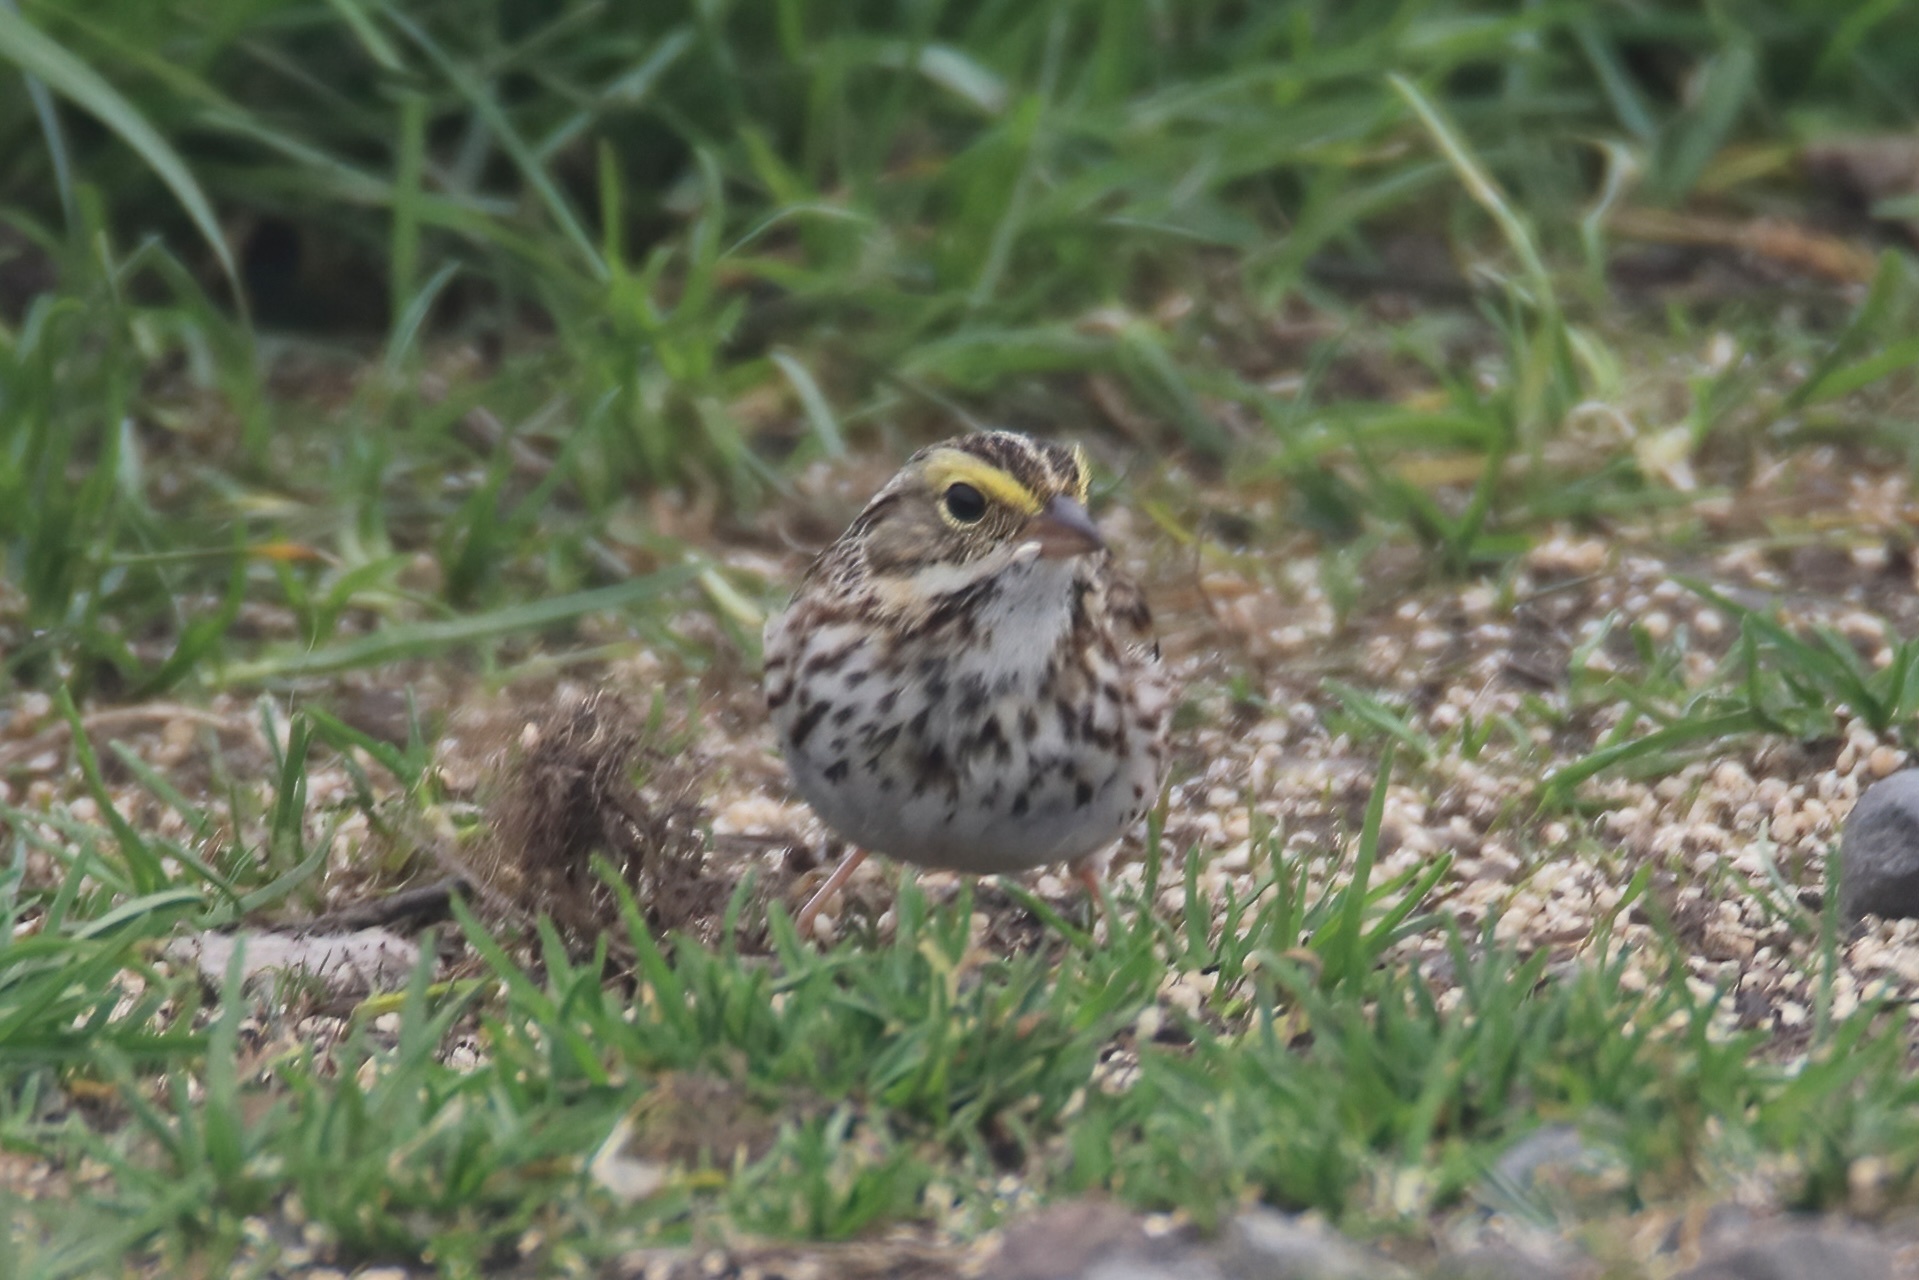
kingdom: Animalia
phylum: Chordata
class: Aves
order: Passeriformes
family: Passerellidae
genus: Passerculus
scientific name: Passerculus sandwichensis
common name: Savannah sparrow
